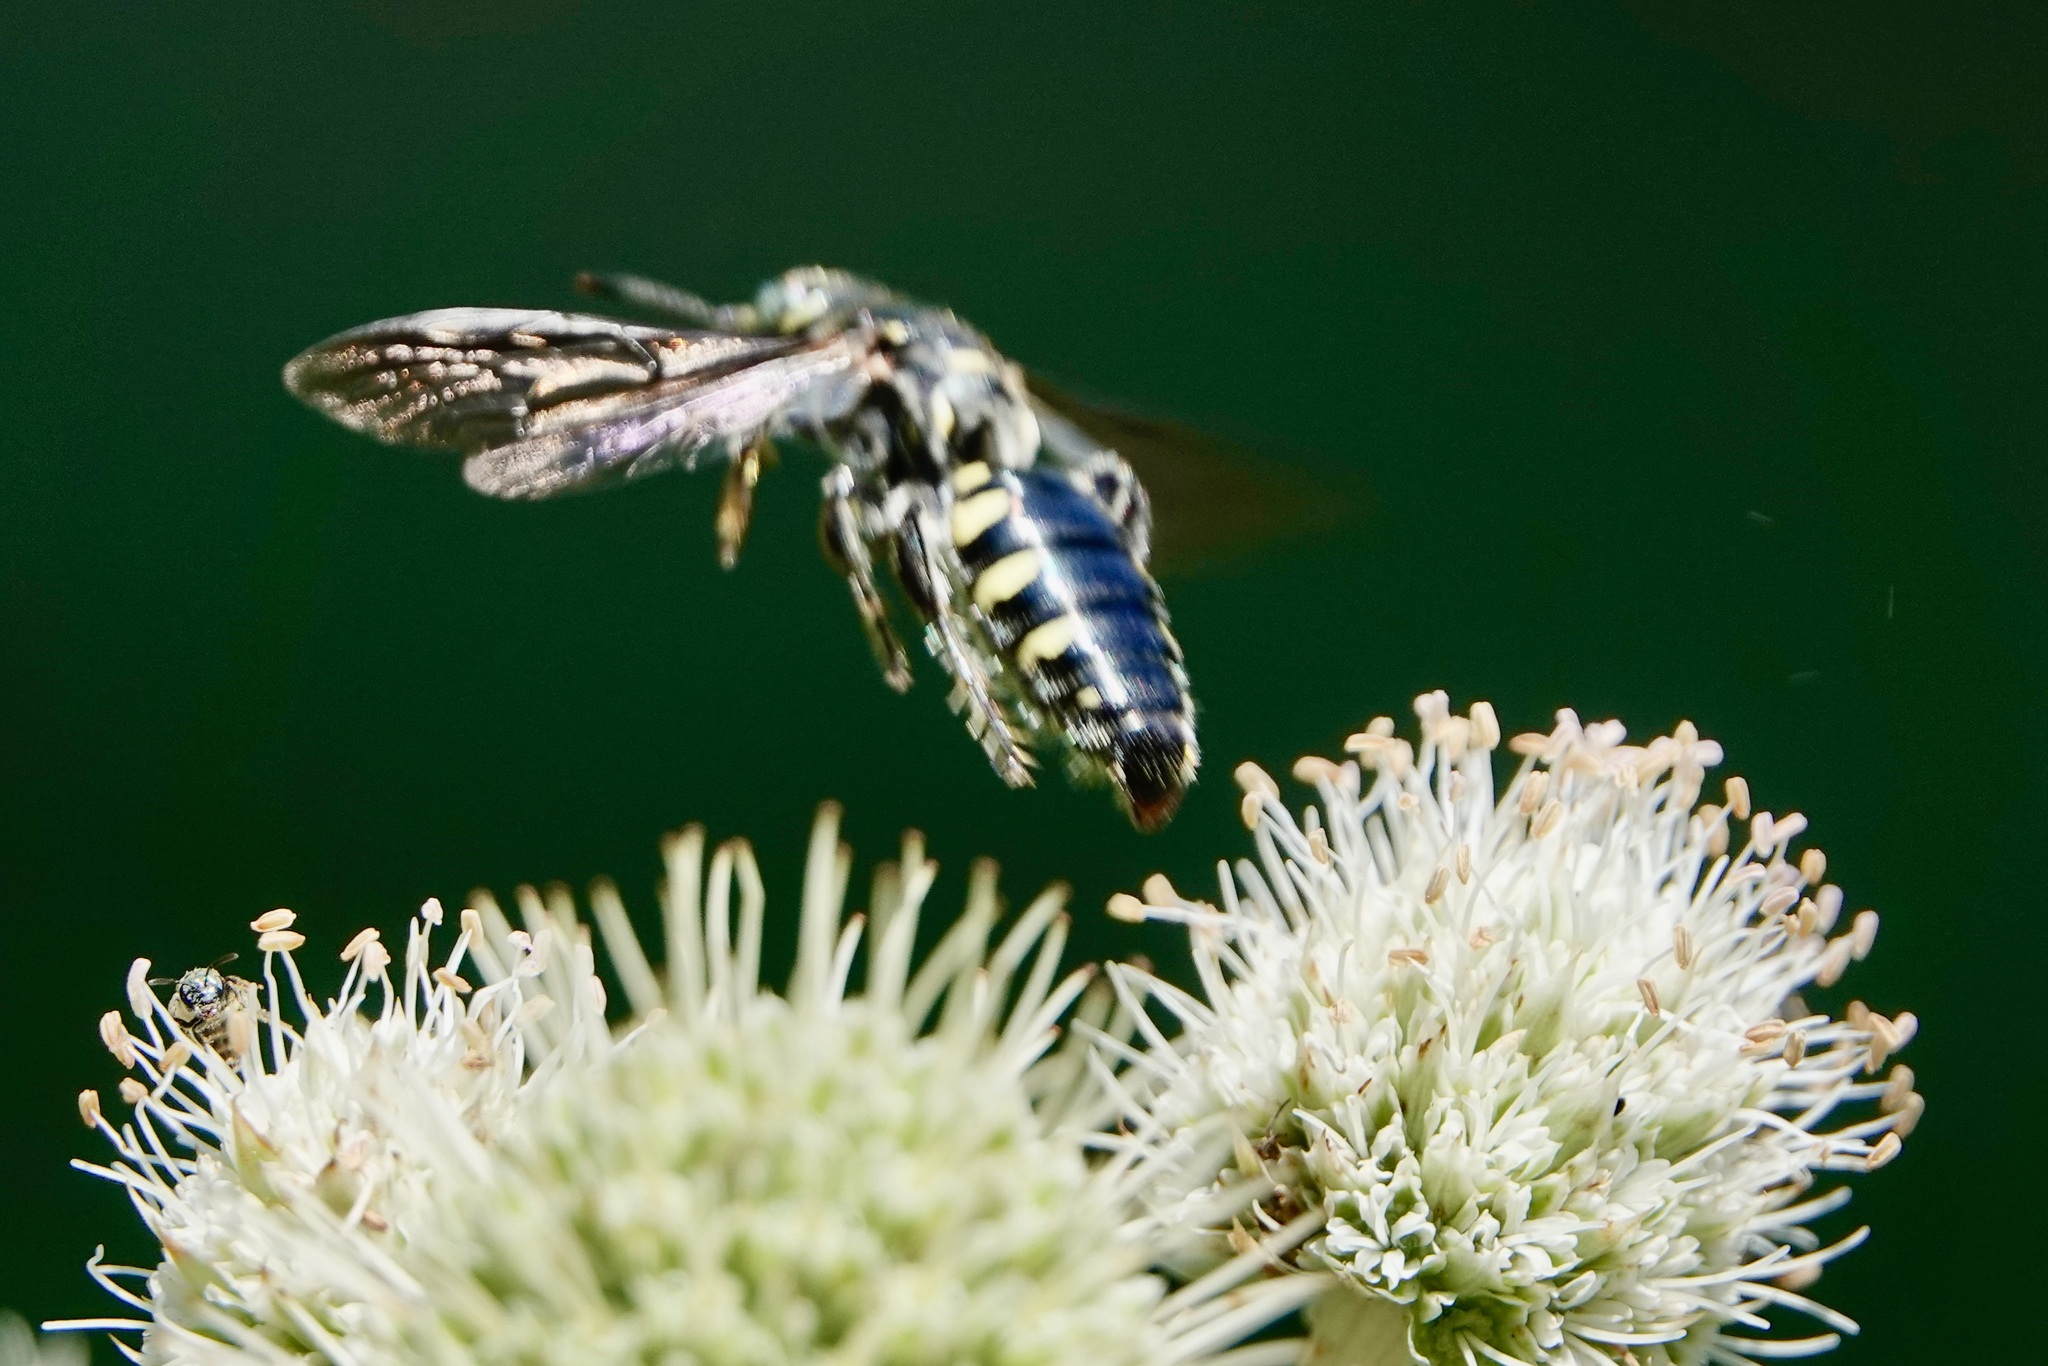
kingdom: Animalia
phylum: Arthropoda
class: Insecta
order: Hymenoptera
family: Tiphiidae
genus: Myzinum
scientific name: Myzinum obscurum
